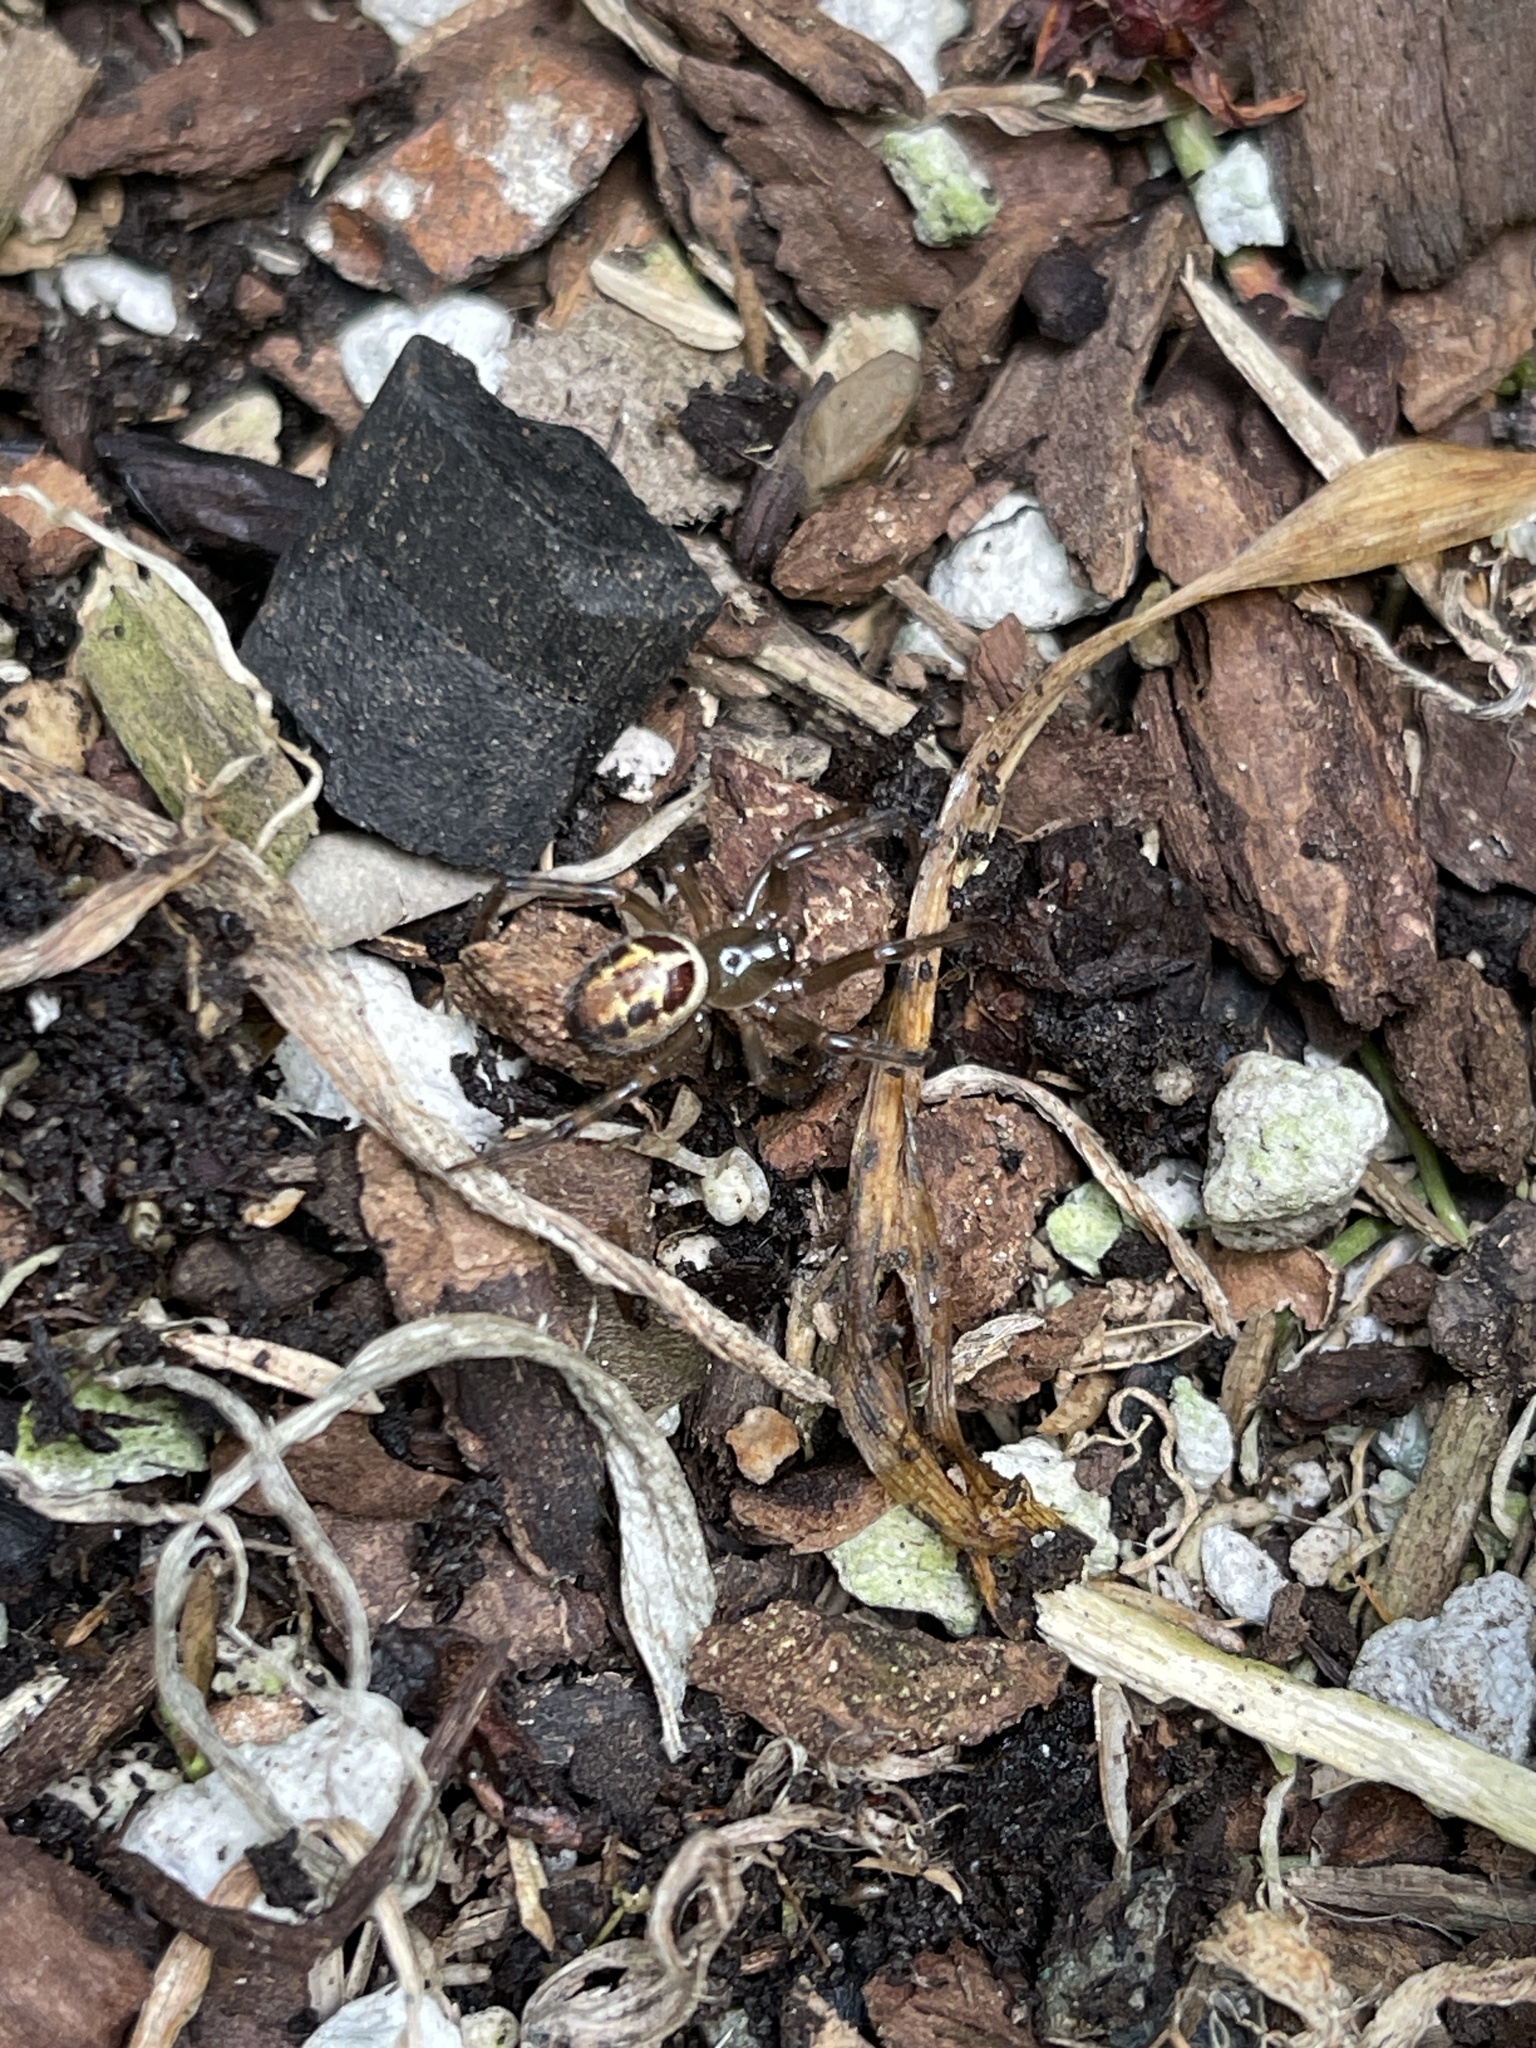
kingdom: Animalia
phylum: Arthropoda
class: Arachnida
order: Araneae
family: Theridiidae
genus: Steatoda
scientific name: Steatoda nobilis
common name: Cobweb weaver
